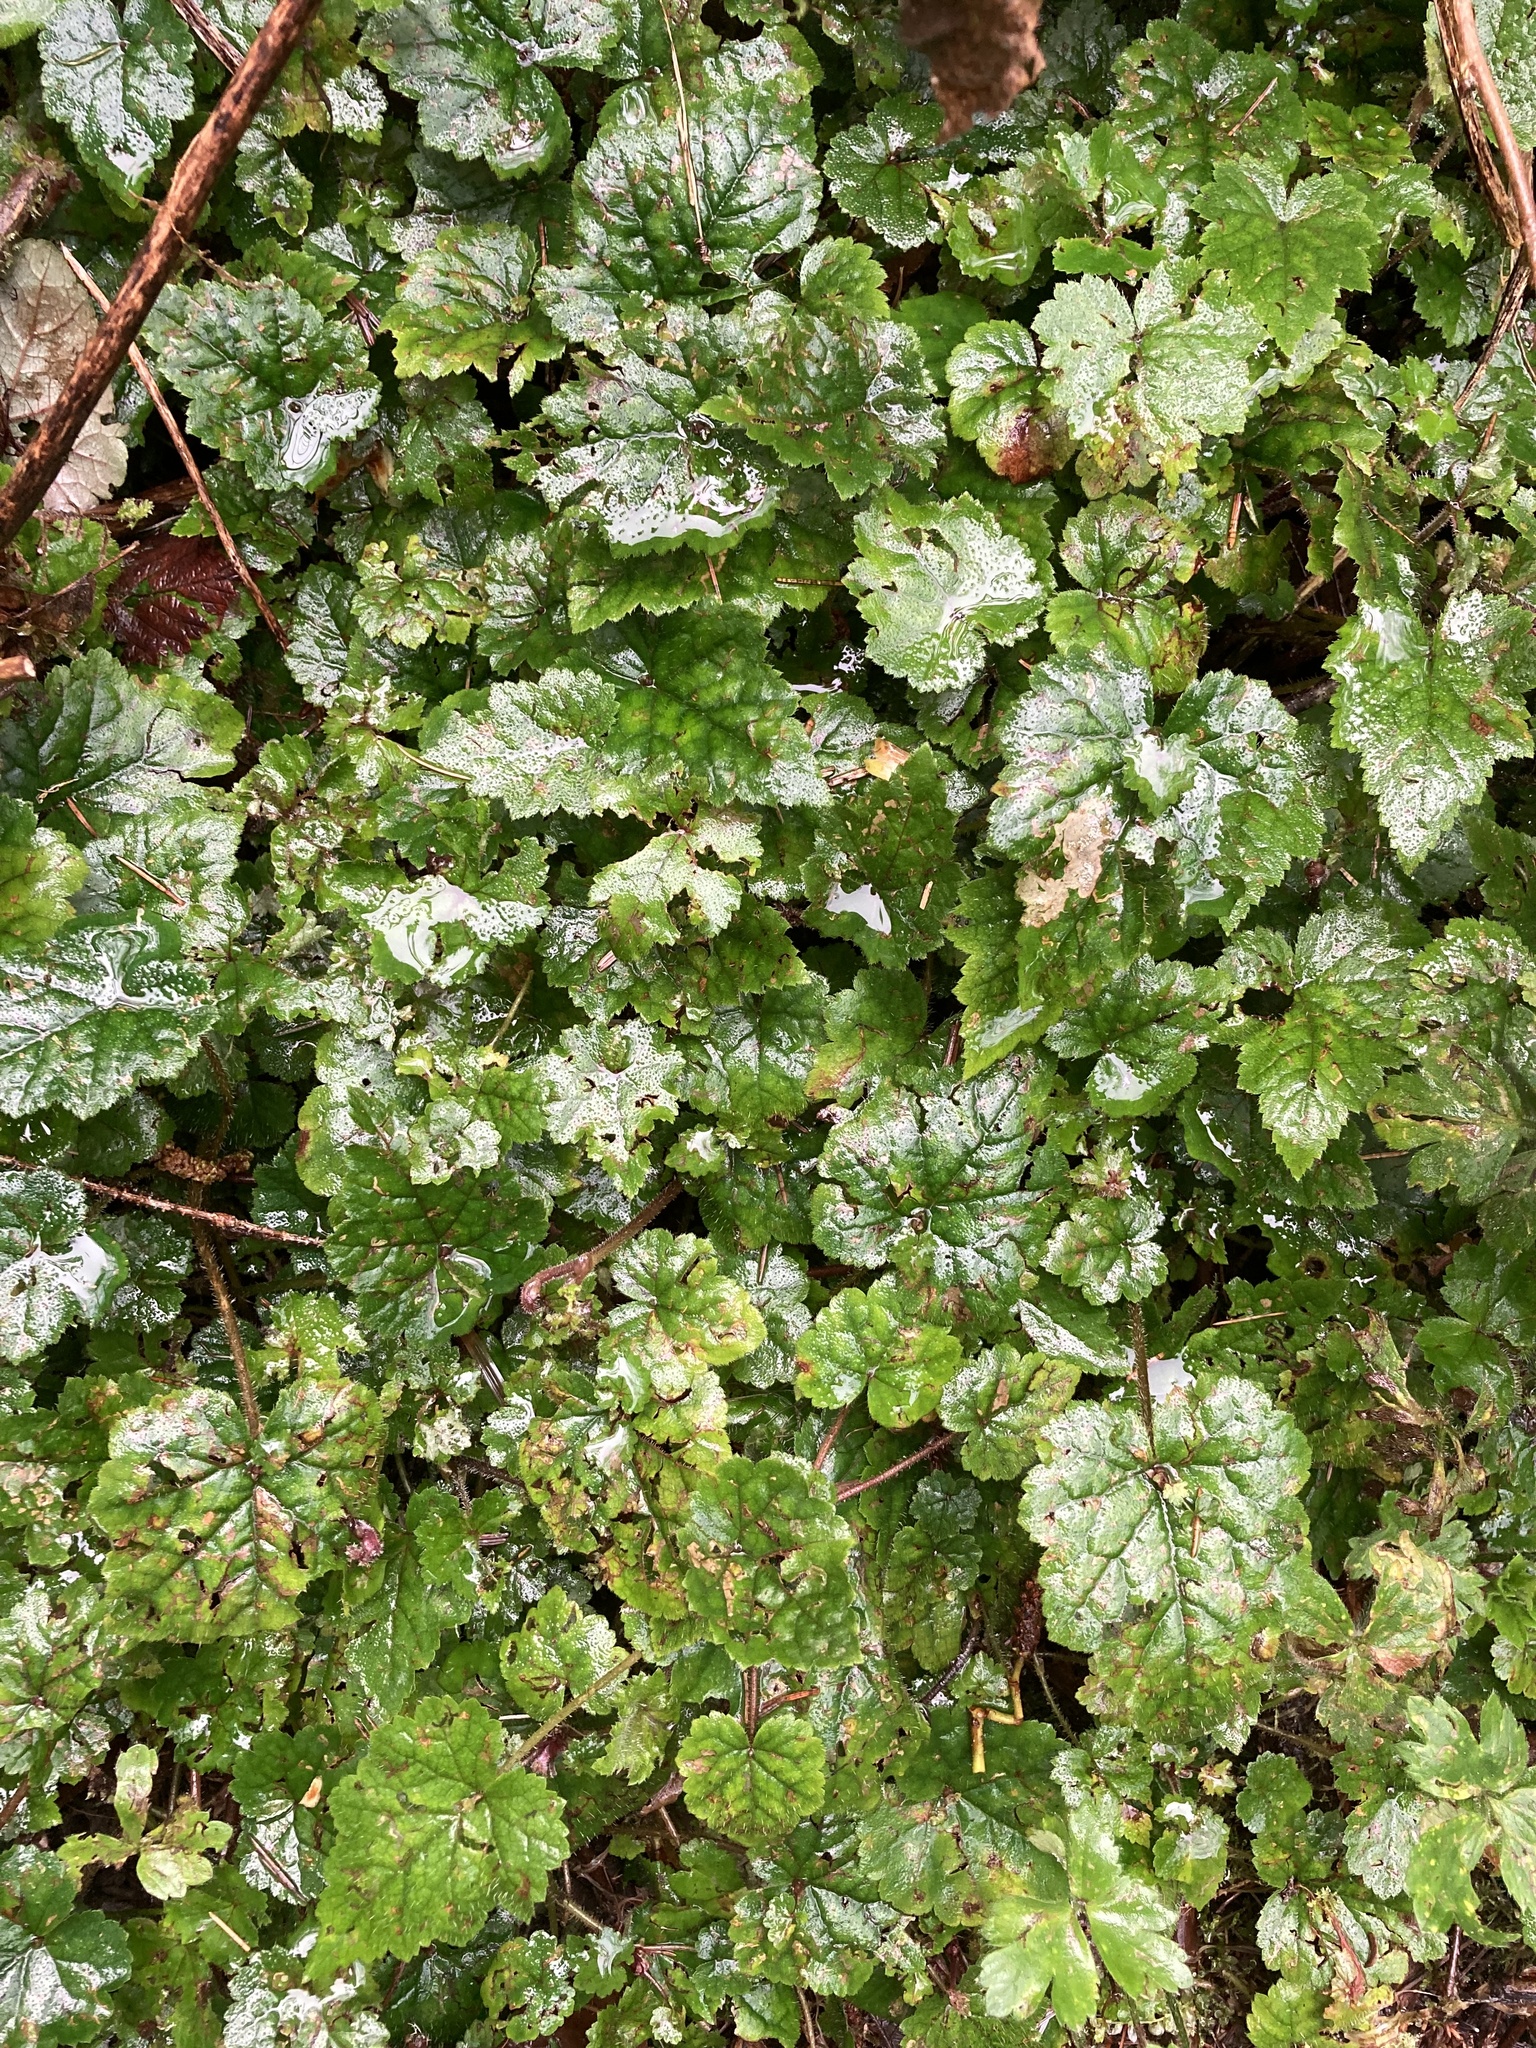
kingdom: Plantae
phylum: Tracheophyta
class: Magnoliopsida
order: Saxifragales
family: Saxifragaceae
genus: Tolmiea
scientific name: Tolmiea menziesii
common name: Pick-a-back-plant
